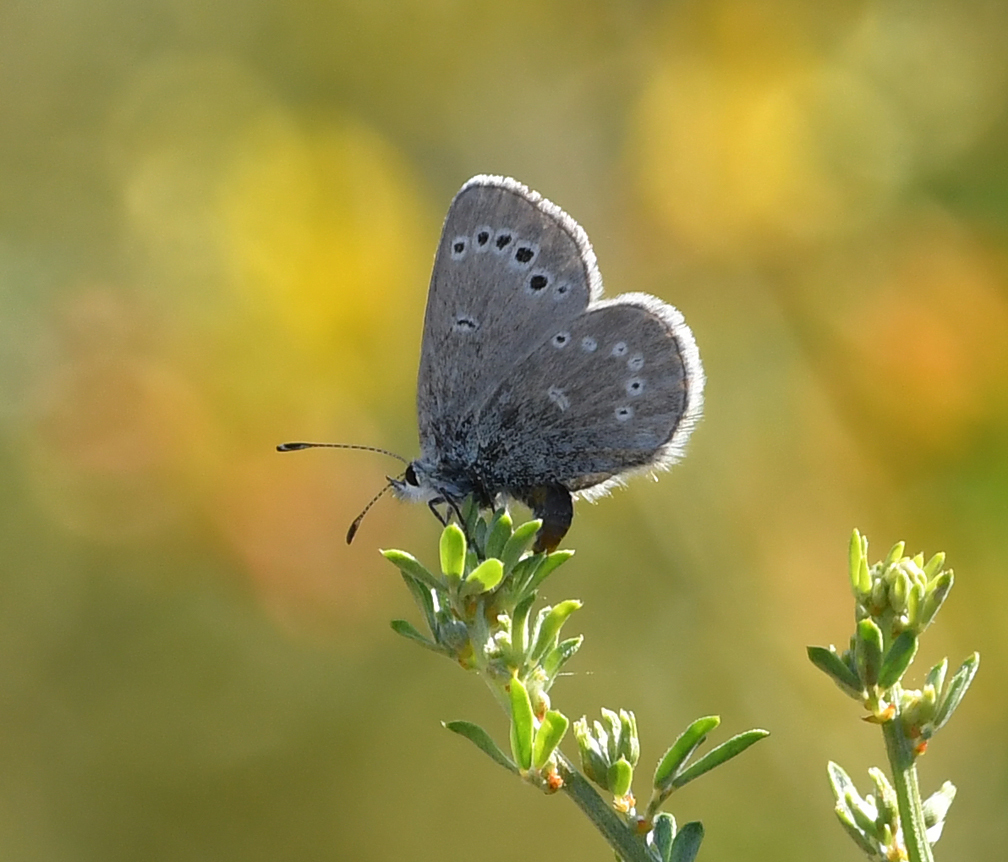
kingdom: Animalia
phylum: Arthropoda
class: Insecta
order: Lepidoptera
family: Lycaenidae
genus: Glaucopsyche
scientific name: Glaucopsyche lygdamus
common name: Silvery blue
